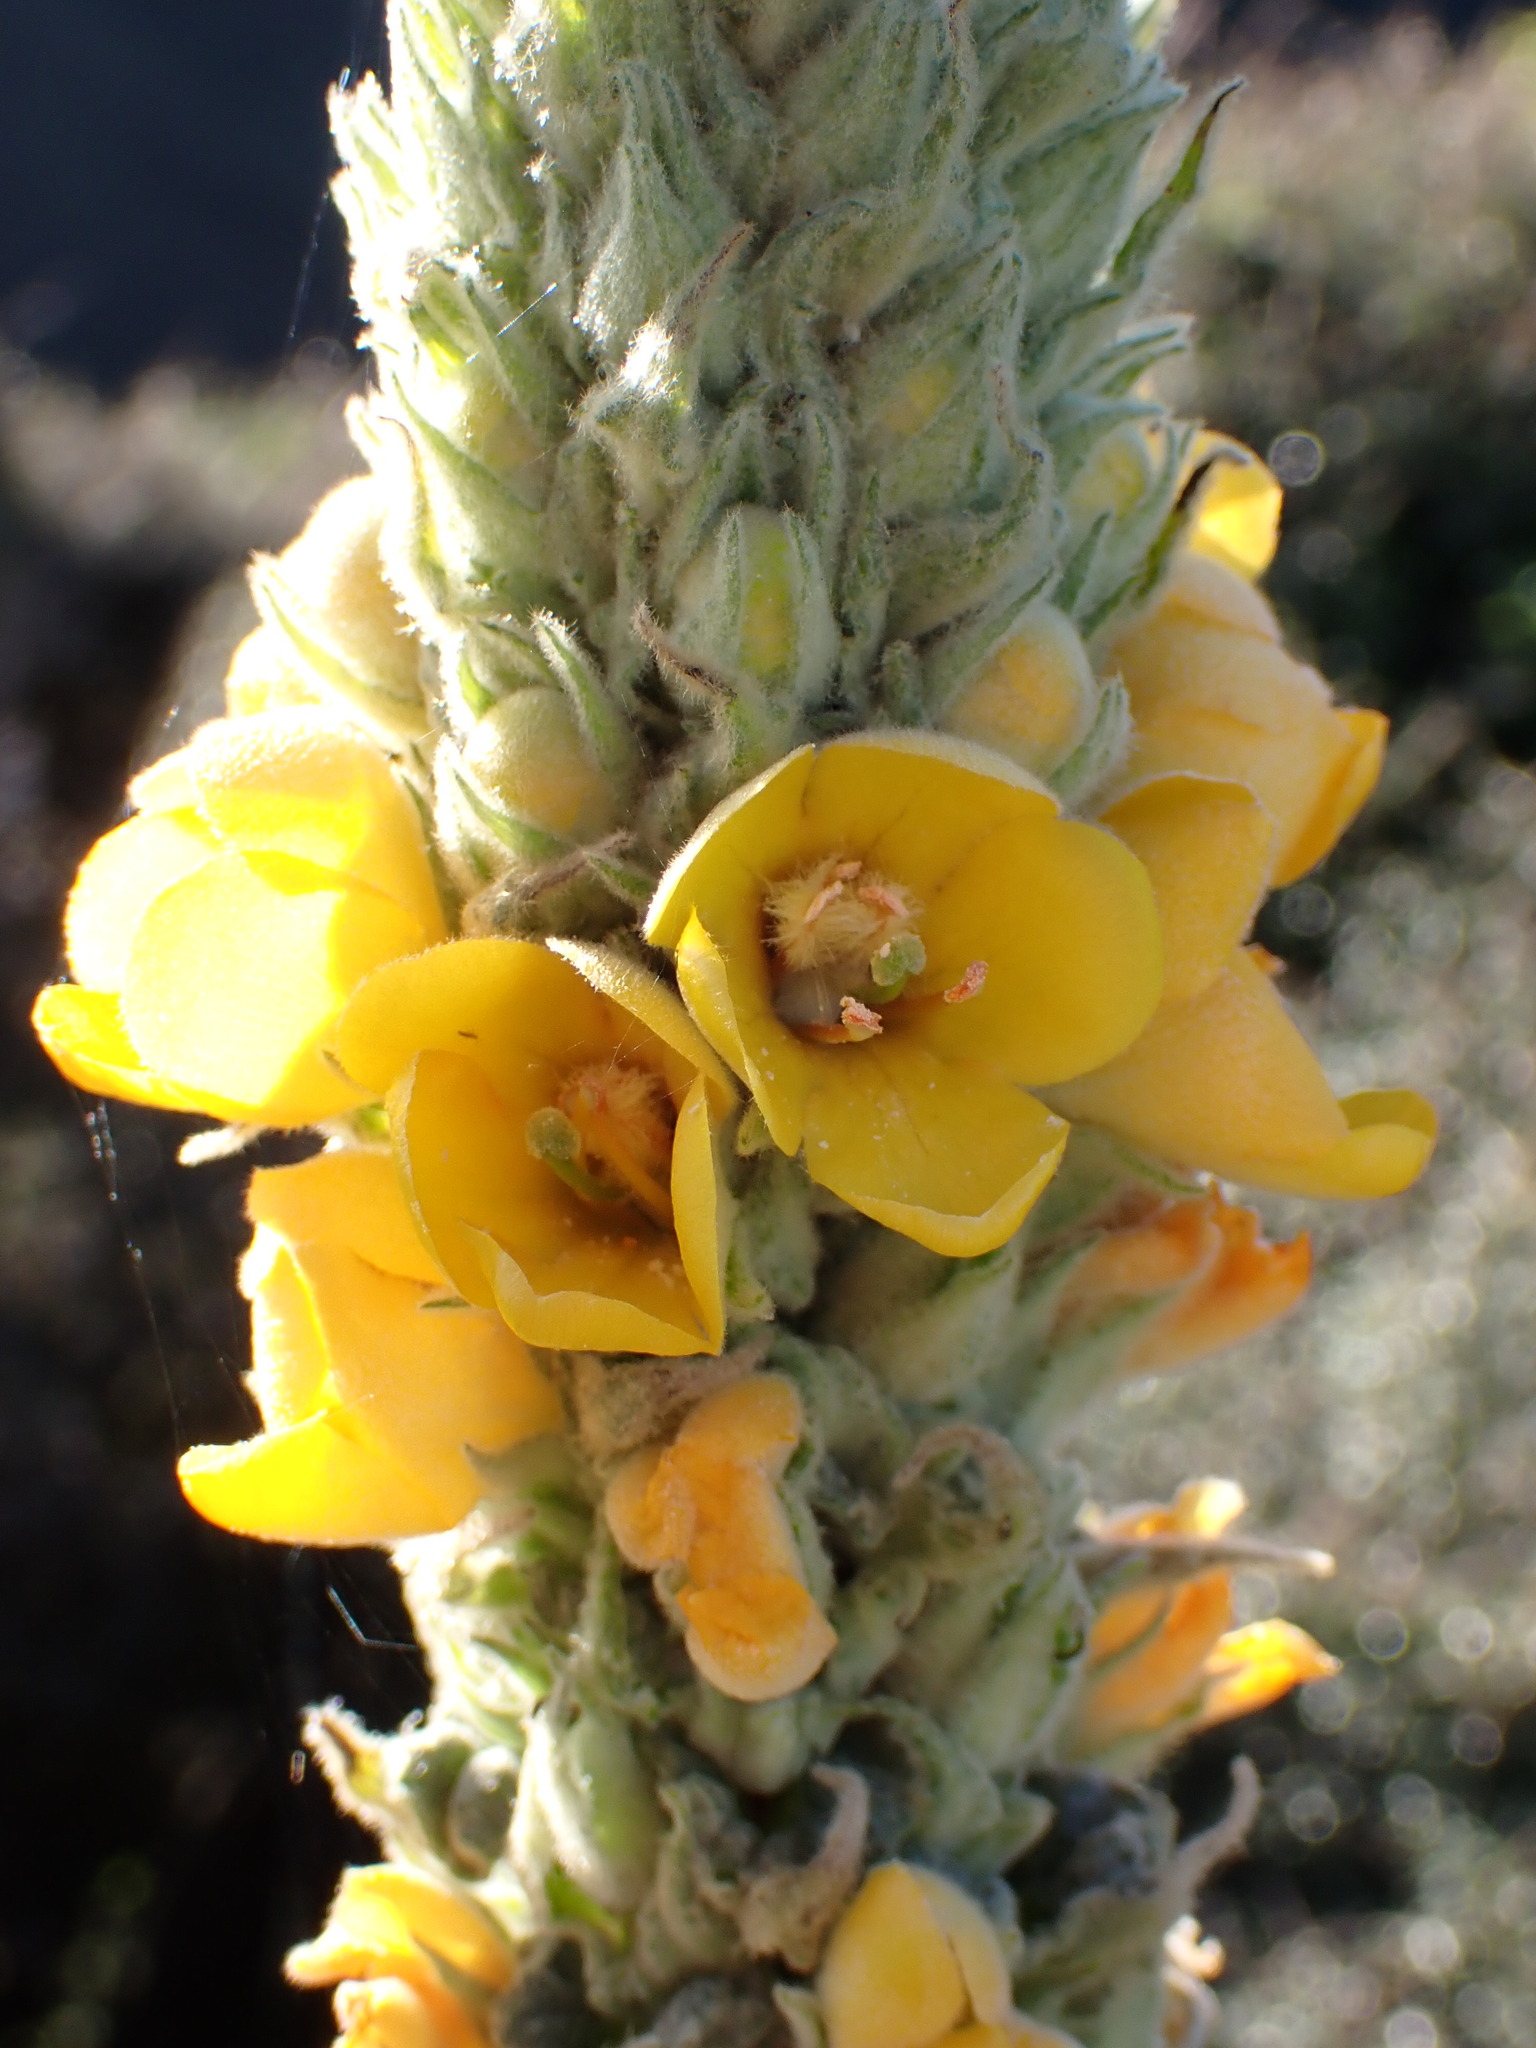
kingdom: Plantae
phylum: Tracheophyta
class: Magnoliopsida
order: Lamiales
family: Scrophulariaceae
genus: Verbascum
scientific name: Verbascum thapsus
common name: Common mullein
